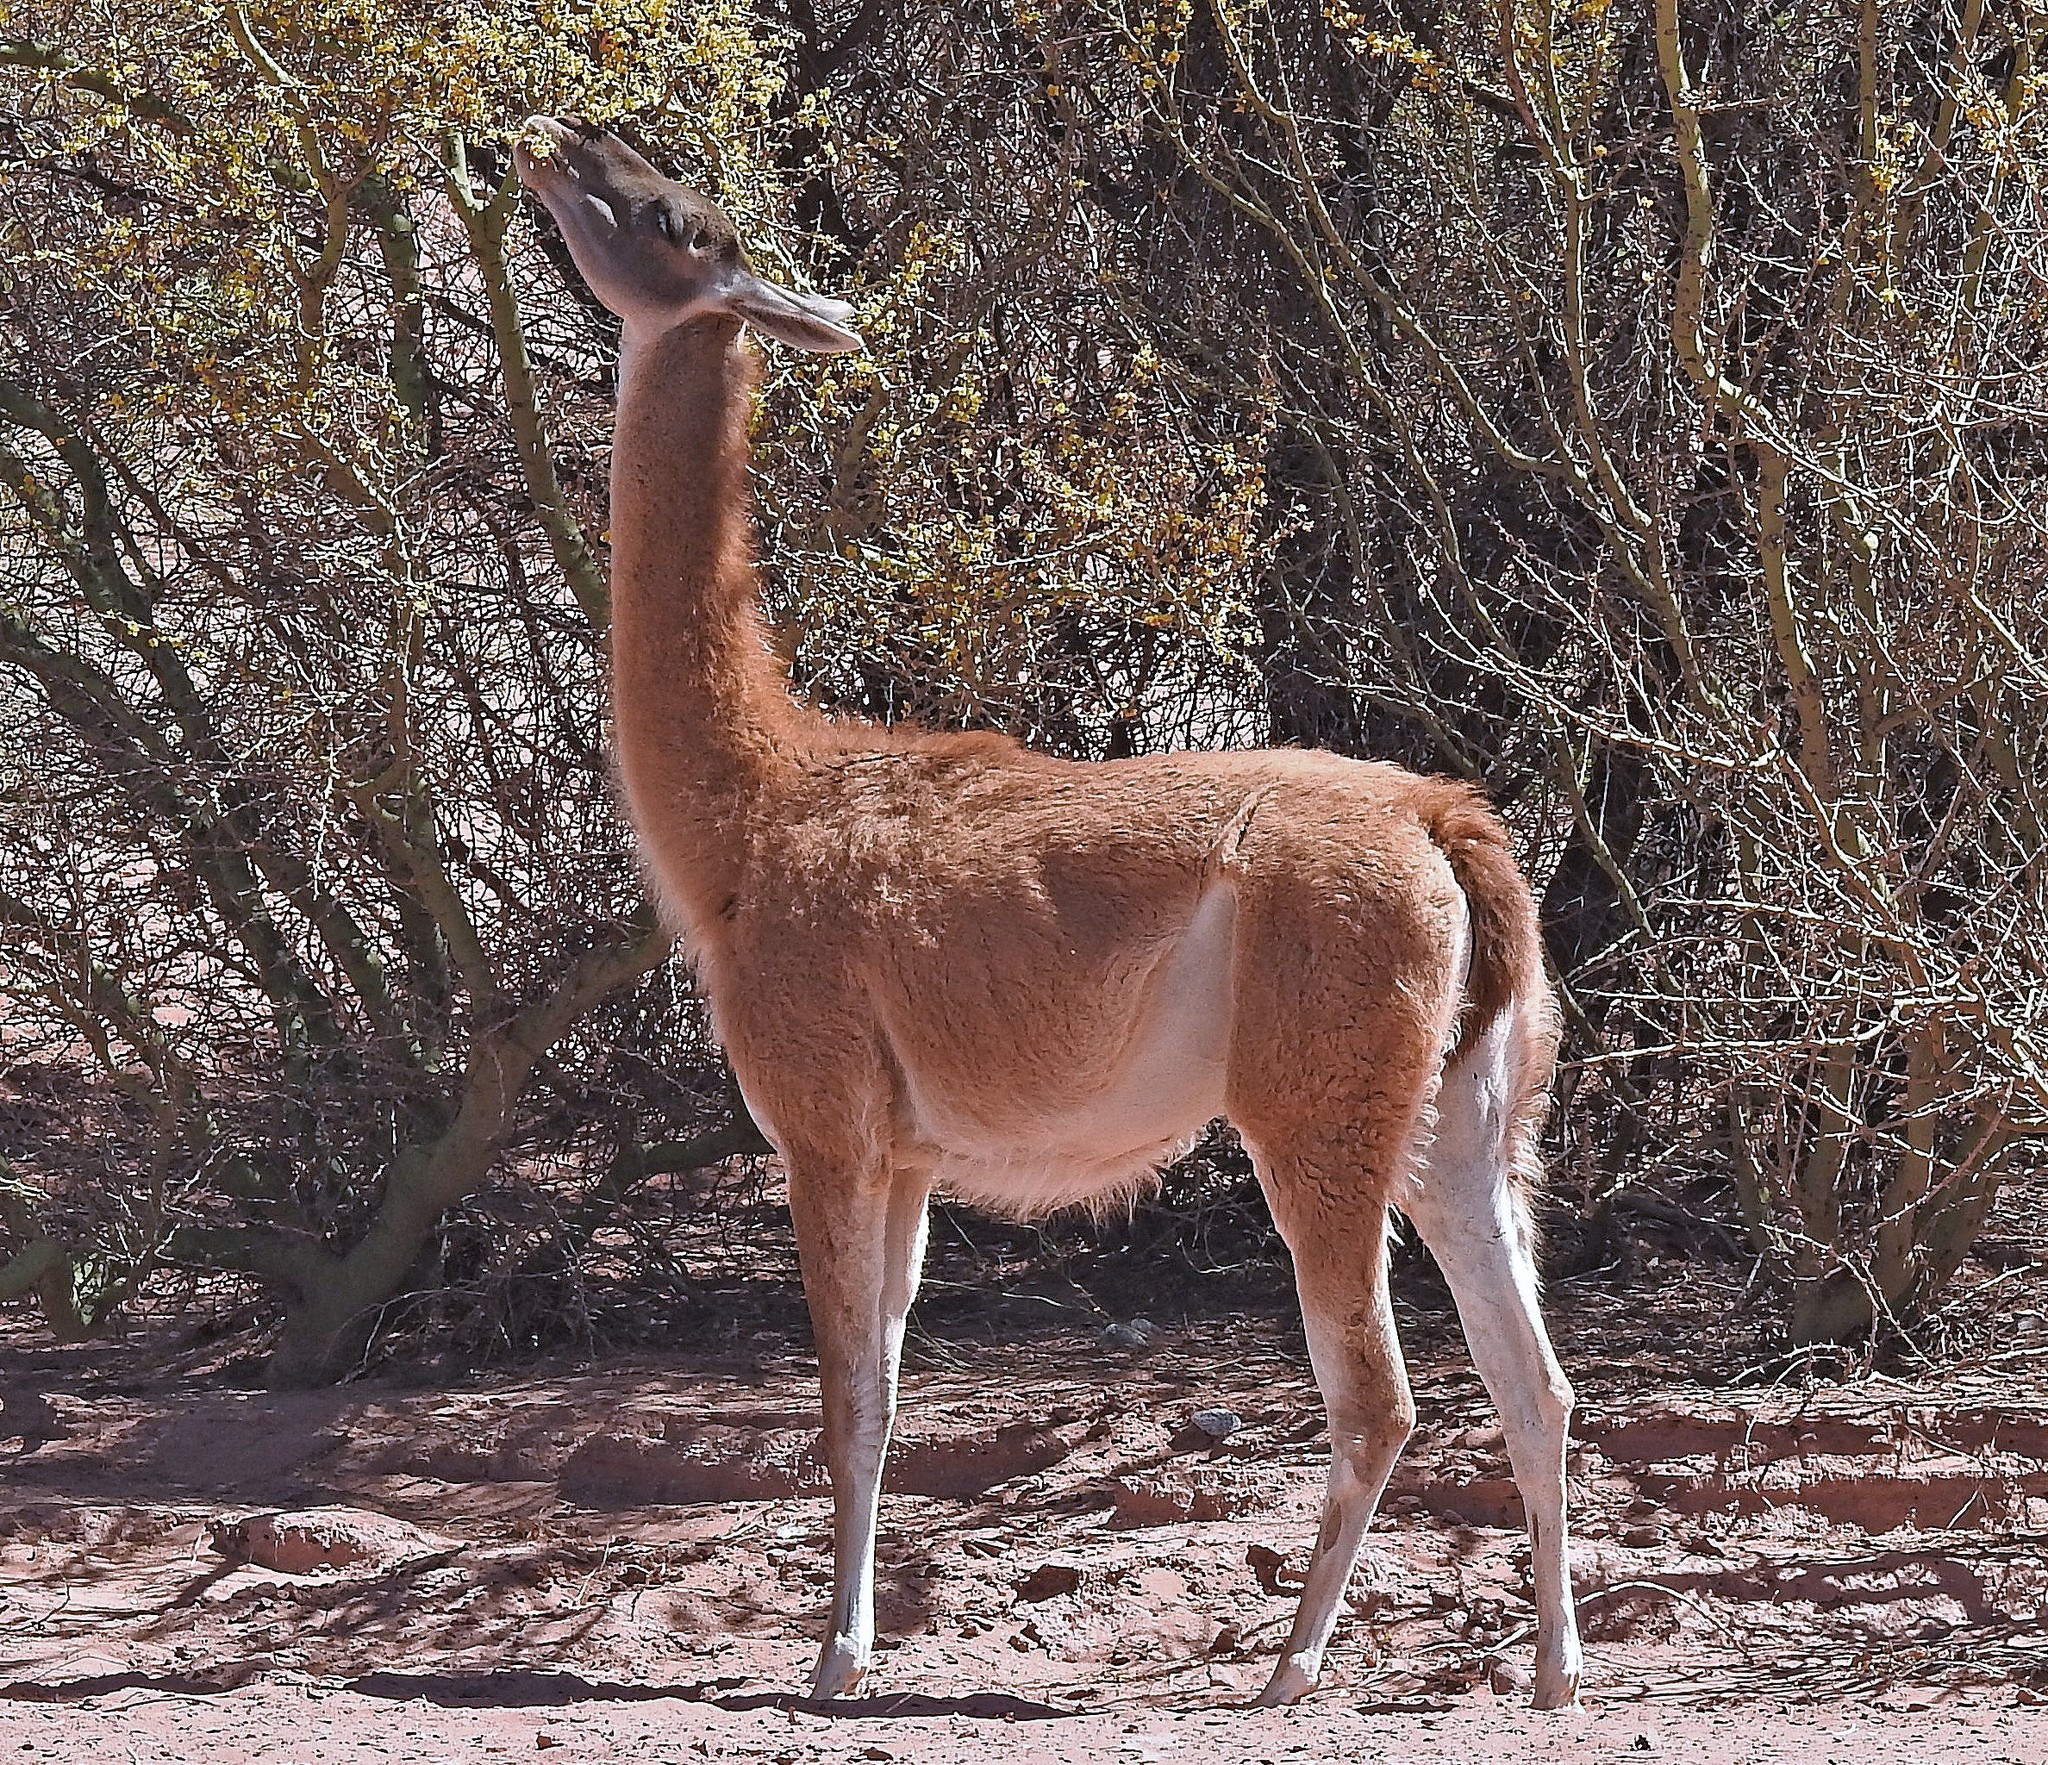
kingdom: Animalia
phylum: Chordata
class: Mammalia
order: Artiodactyla
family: Camelidae
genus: Lama
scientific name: Lama glama
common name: Llama
